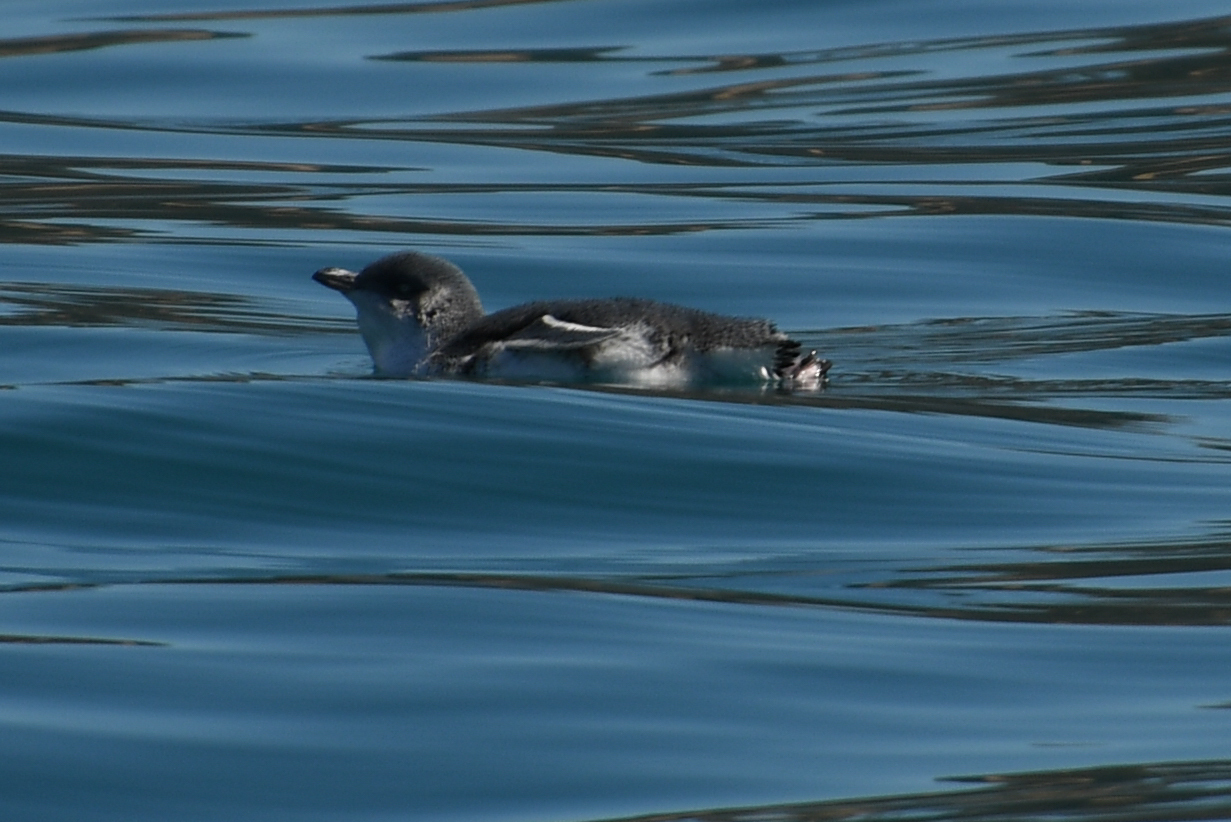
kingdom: Animalia
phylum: Chordata
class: Aves
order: Sphenisciformes
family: Spheniscidae
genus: Eudyptula
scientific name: Eudyptula minor
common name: Little penguin
